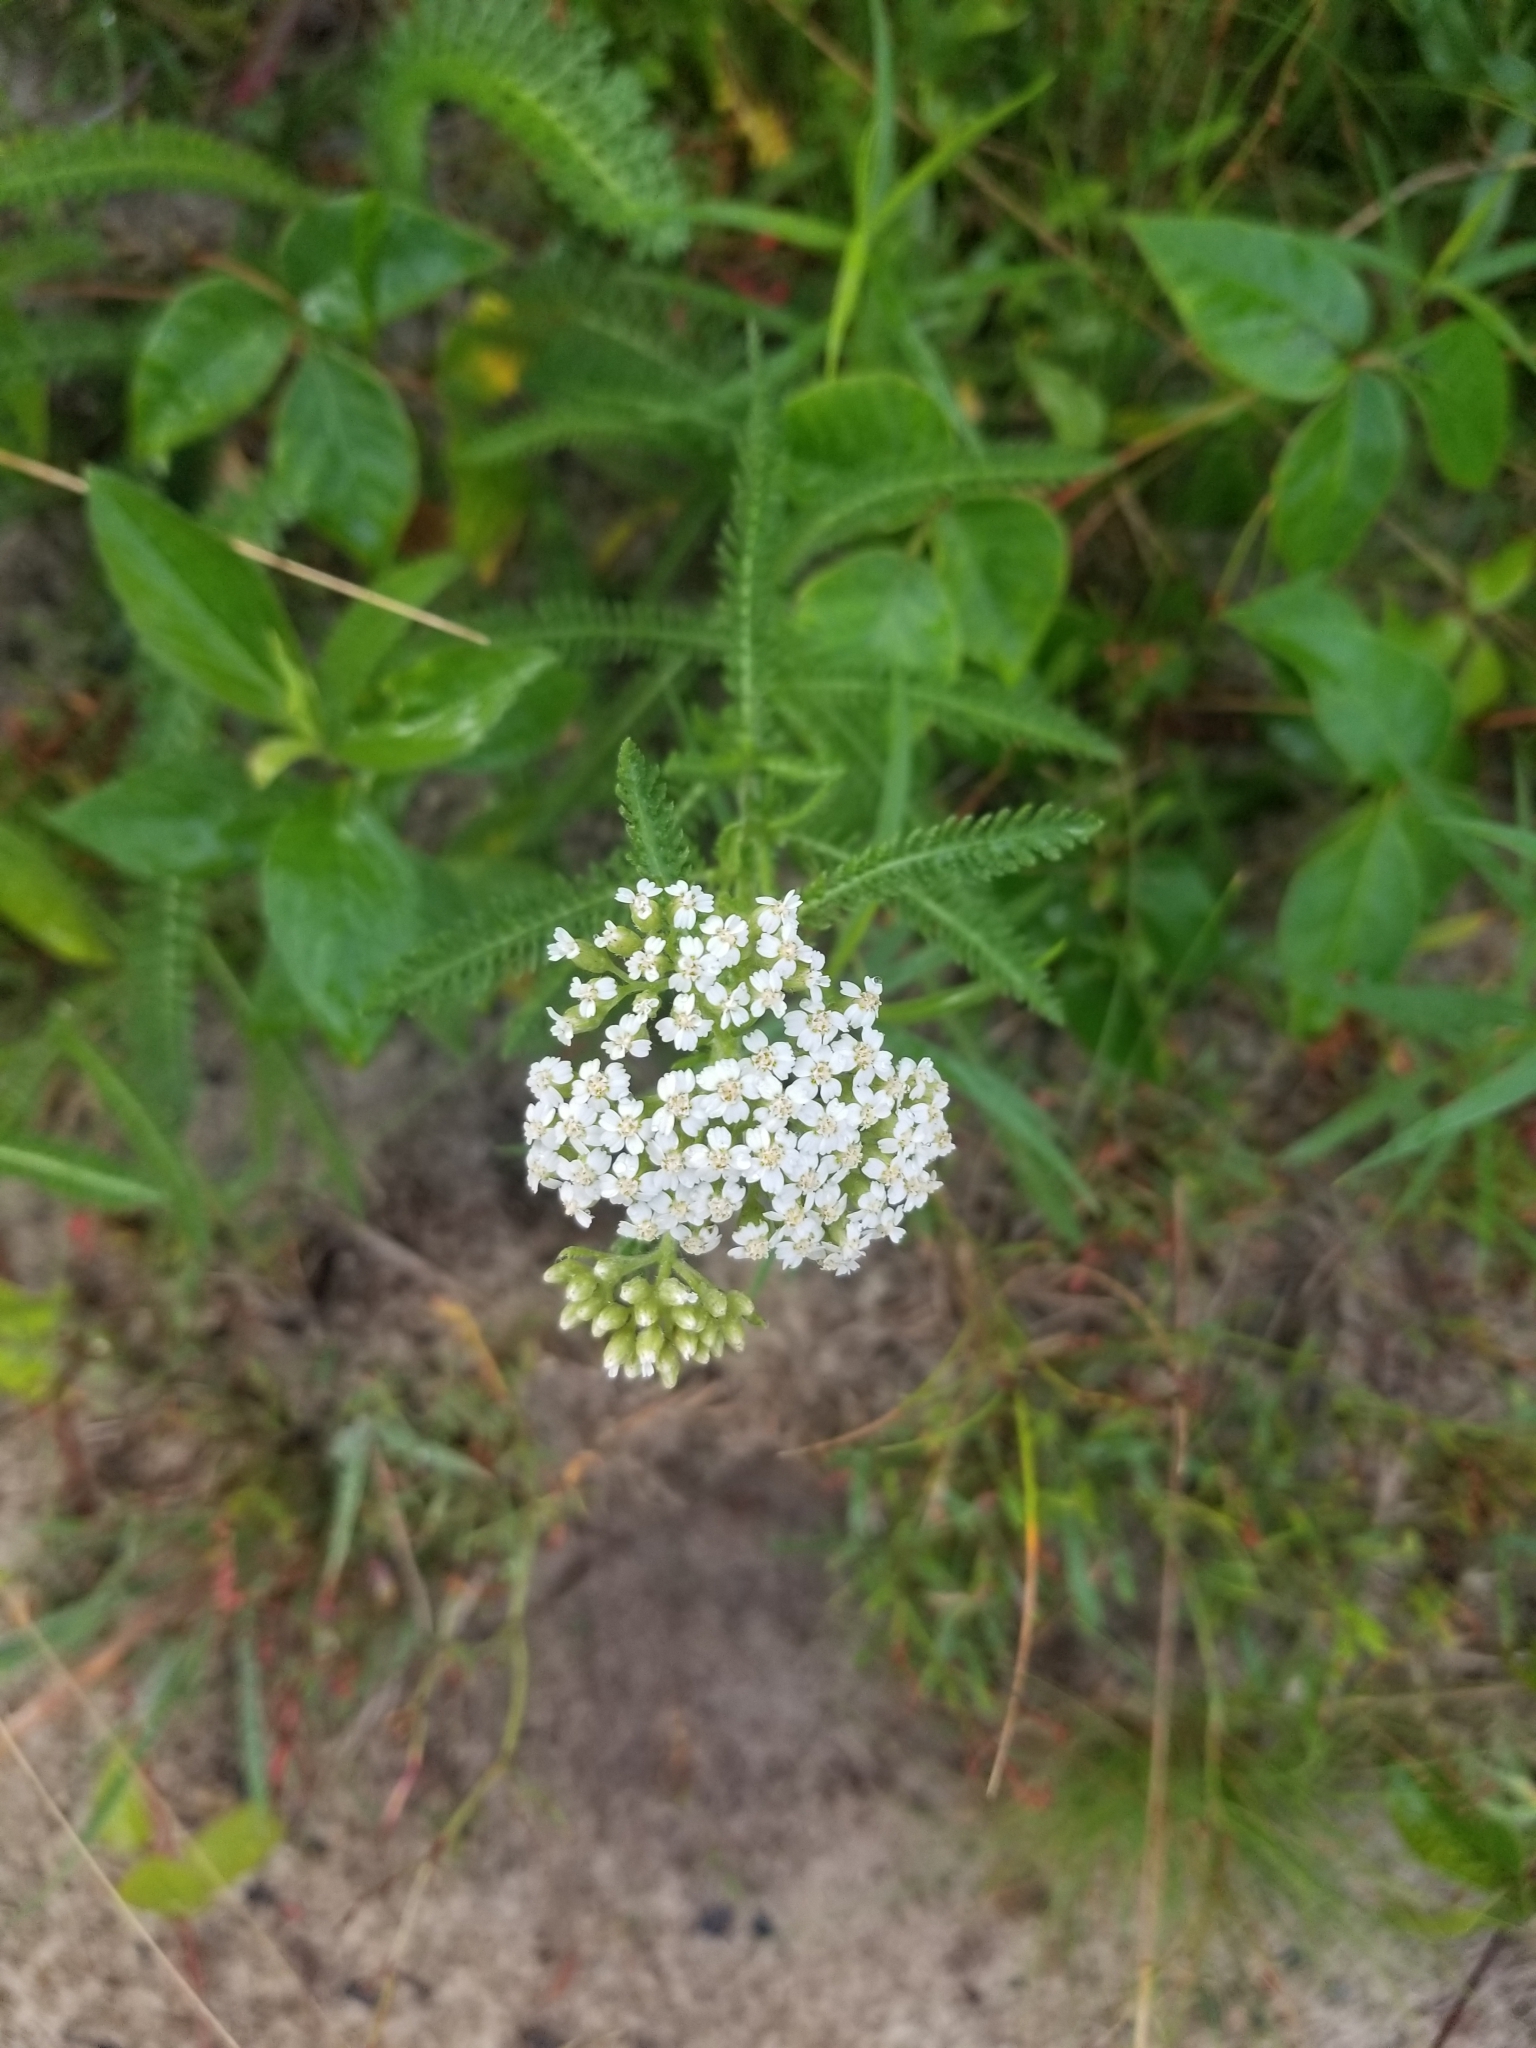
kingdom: Plantae
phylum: Tracheophyta
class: Magnoliopsida
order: Asterales
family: Asteraceae
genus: Achillea
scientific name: Achillea millefolium
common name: Yarrow
